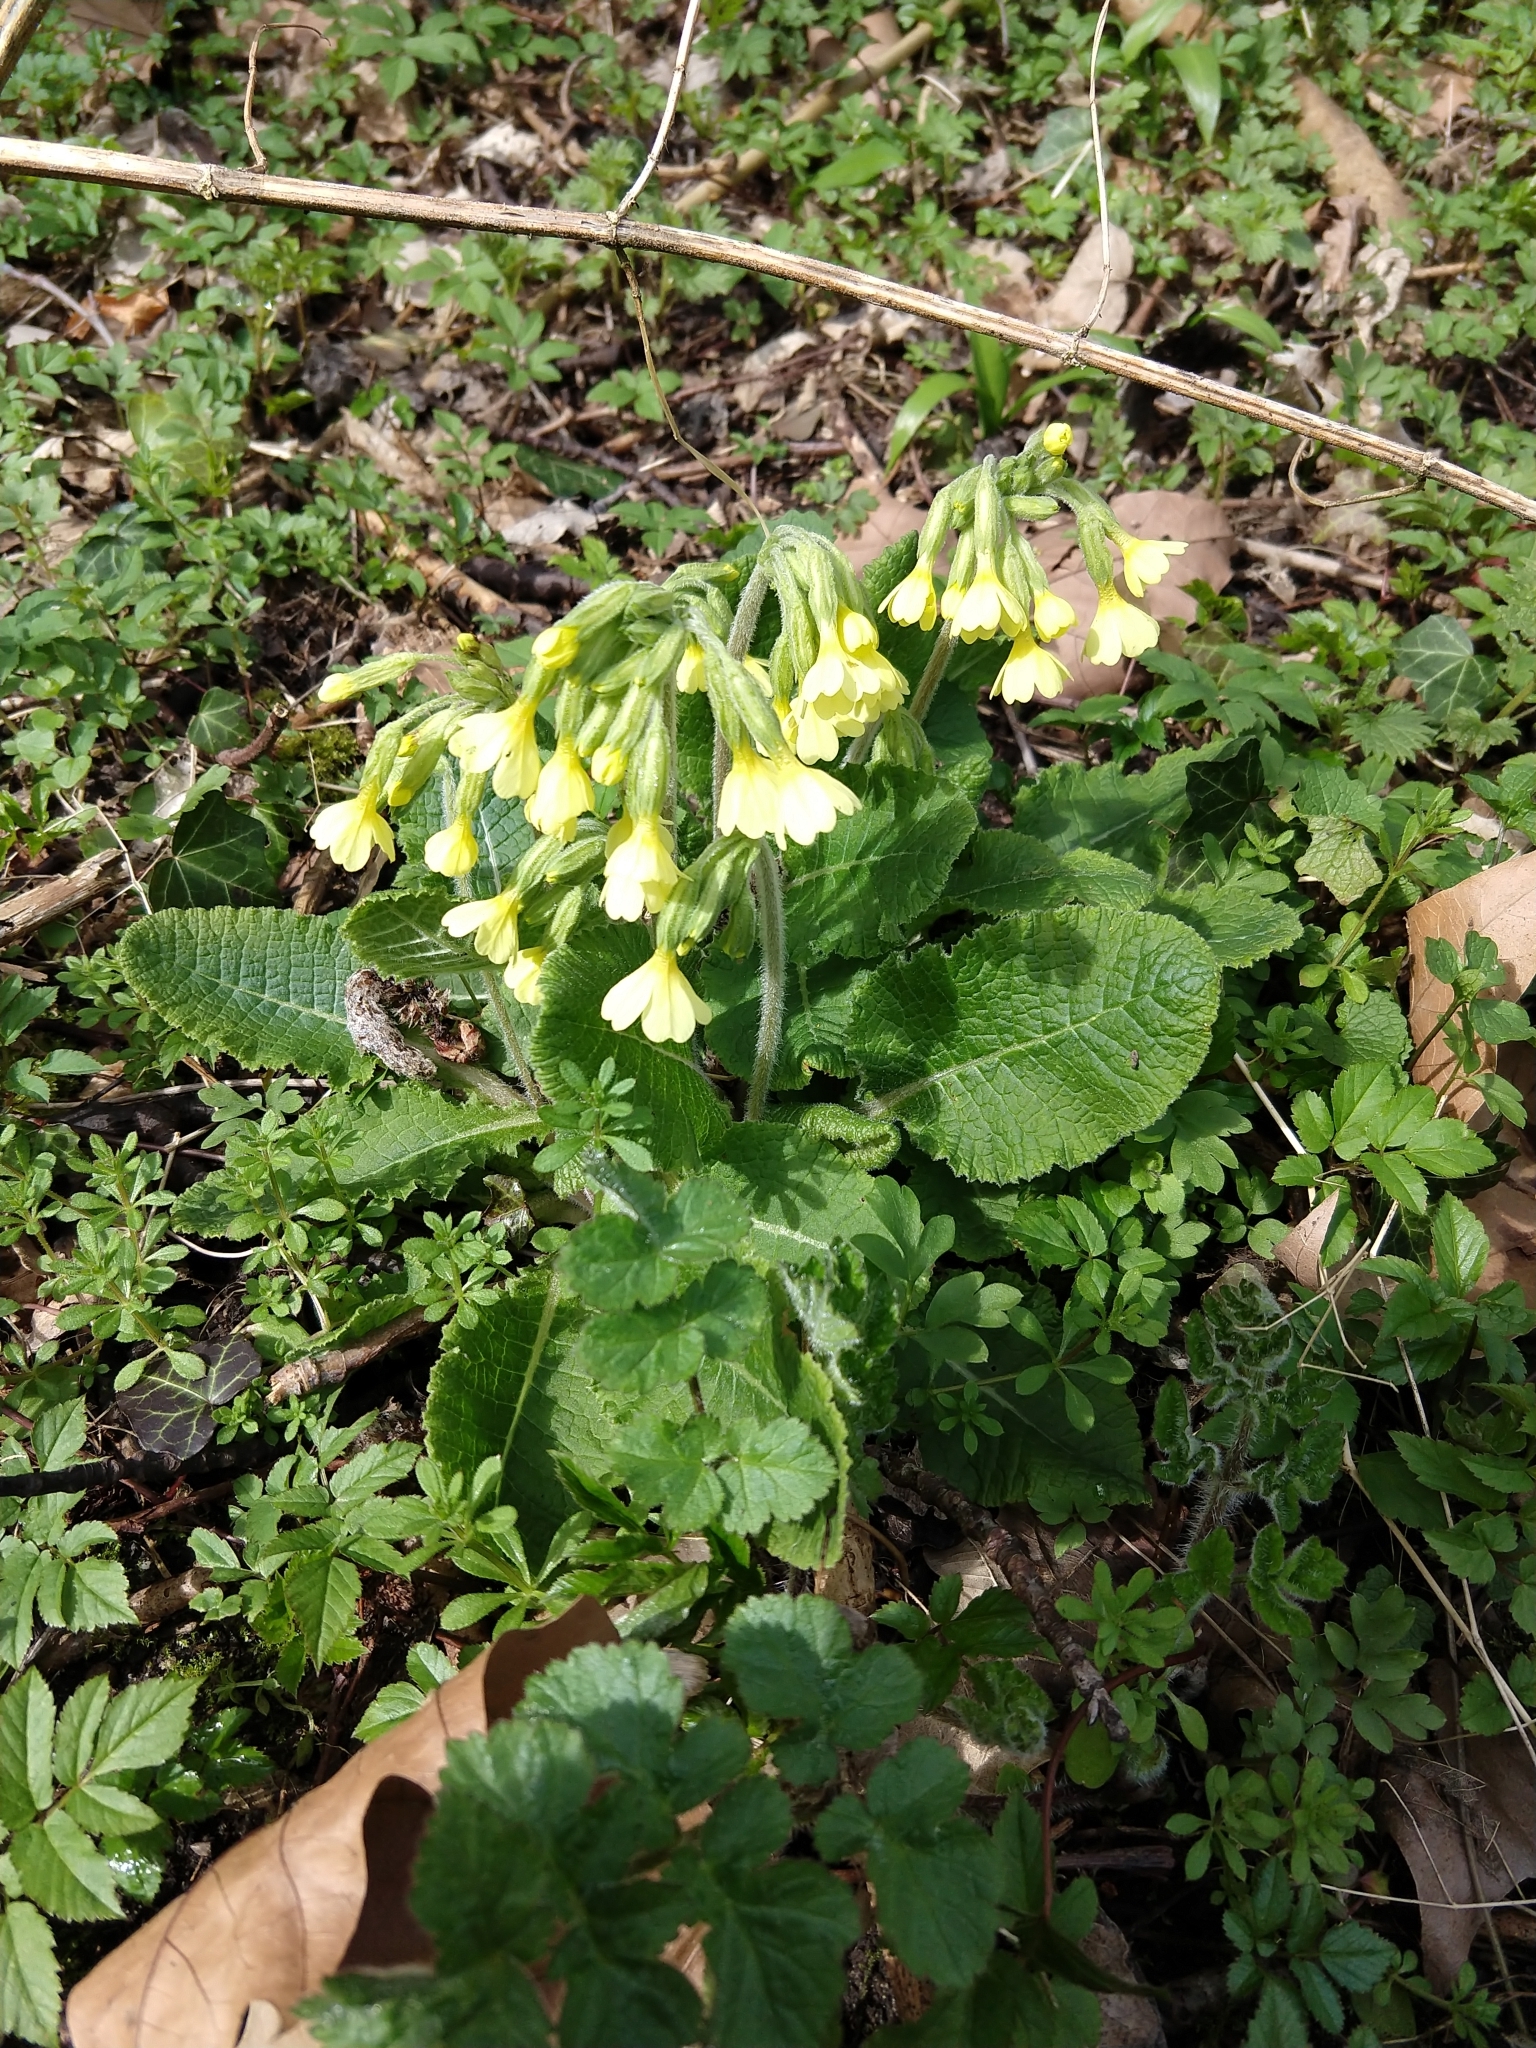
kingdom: Plantae
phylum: Tracheophyta
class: Magnoliopsida
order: Ericales
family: Primulaceae
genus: Primula
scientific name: Primula elatior
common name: Oxlip
